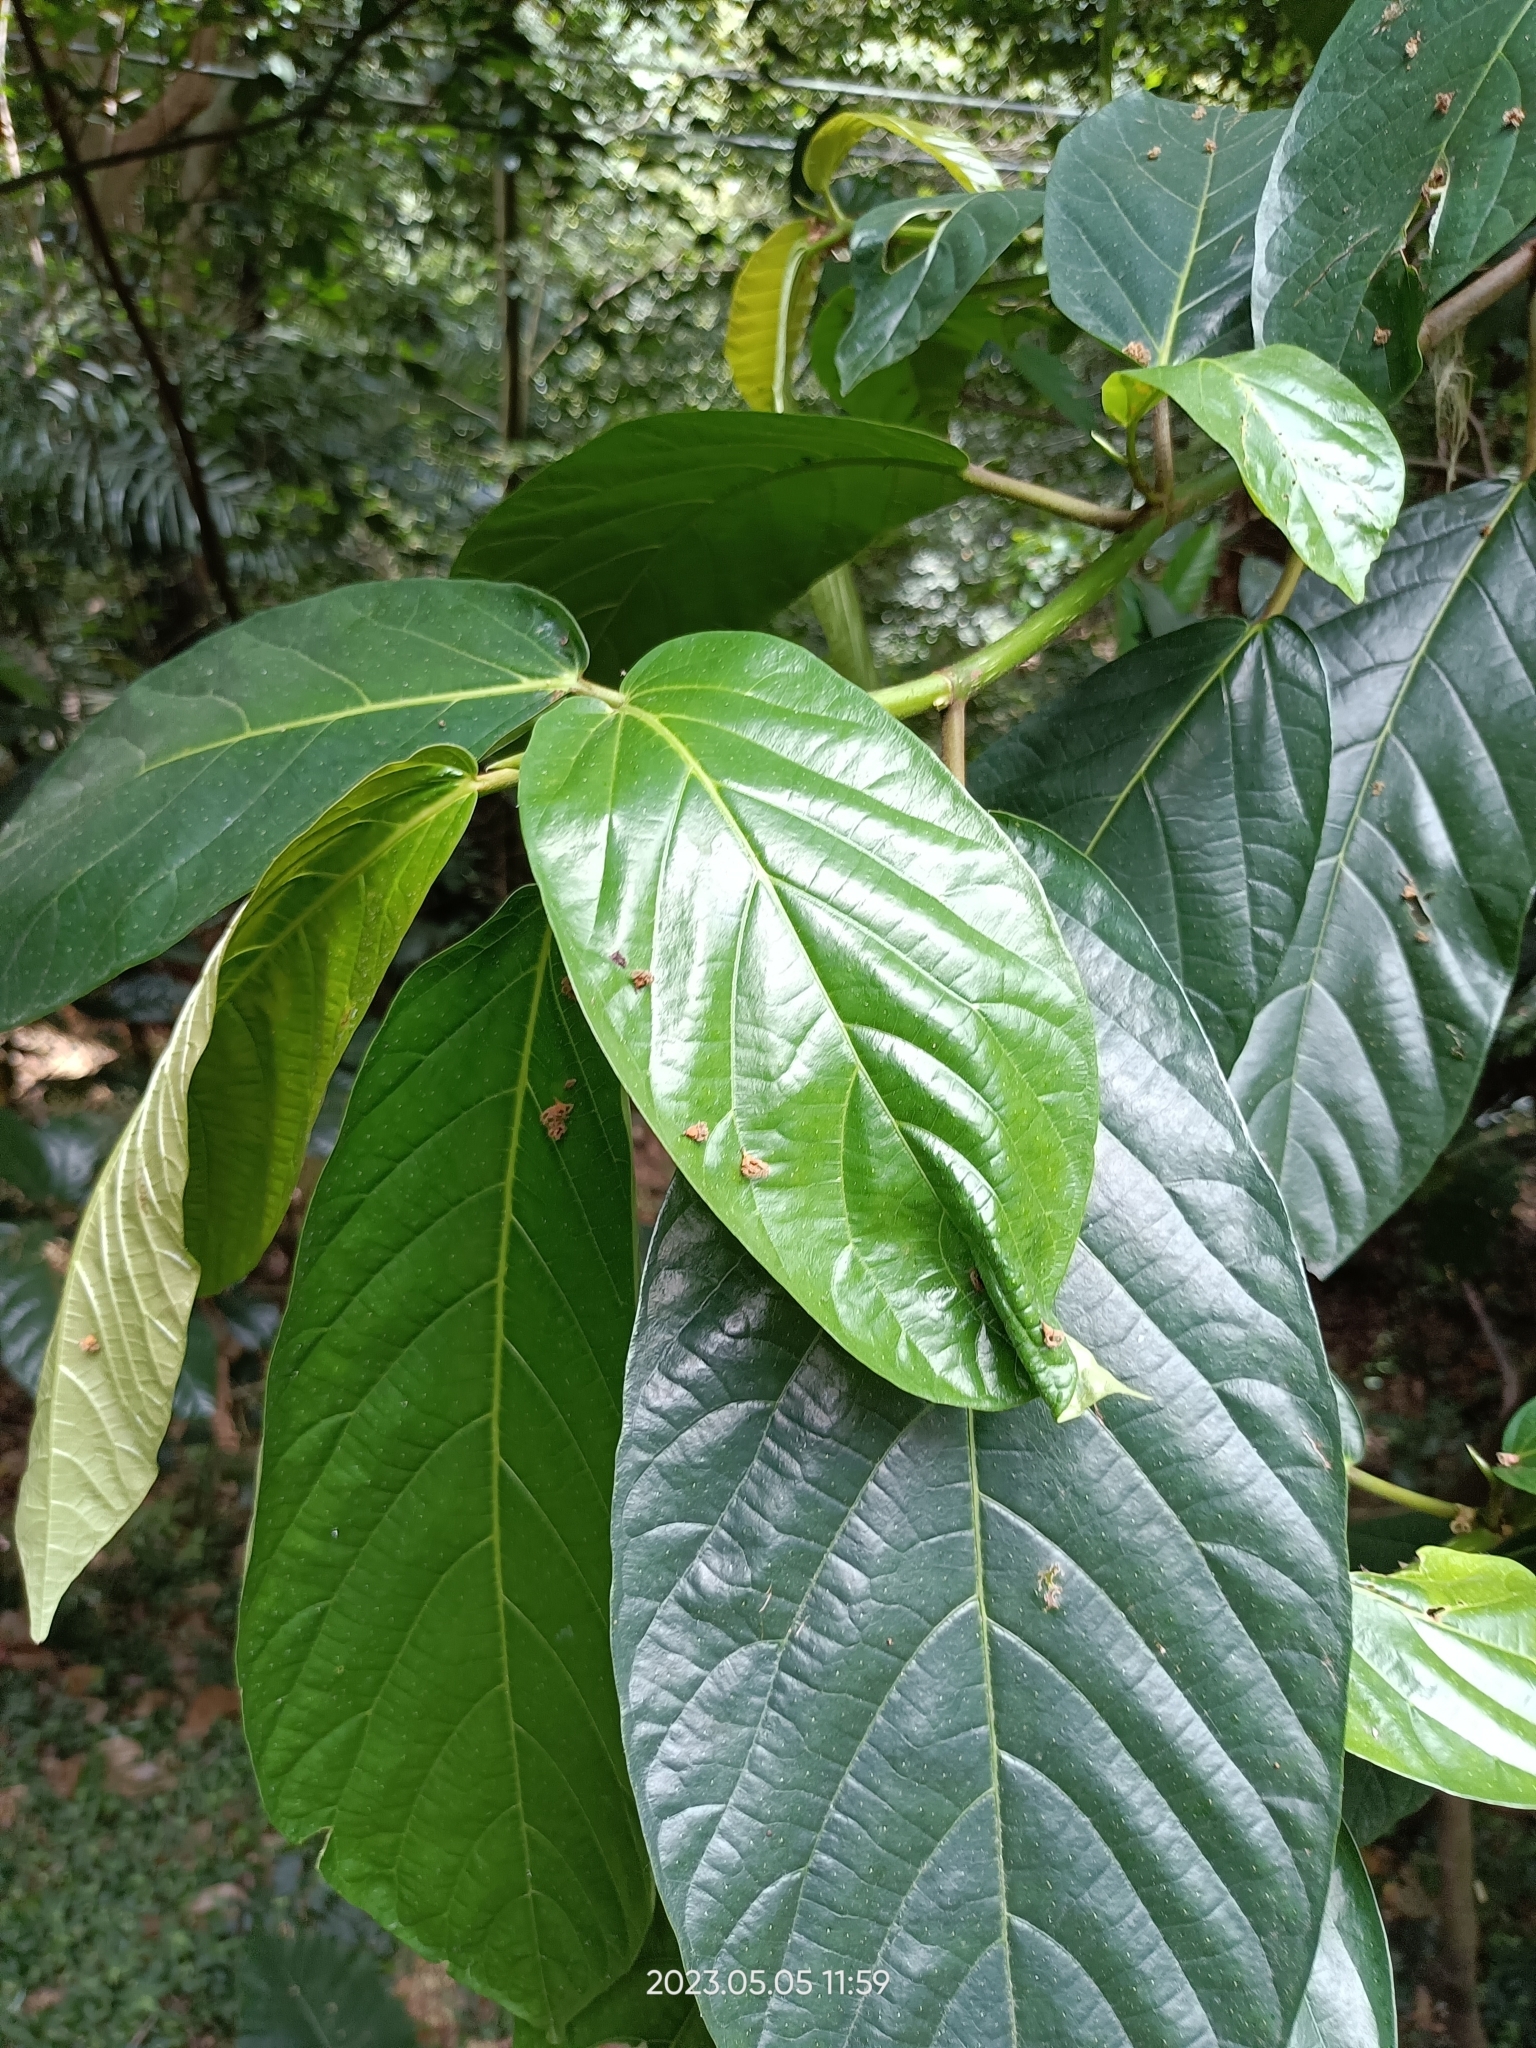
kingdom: Plantae
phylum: Tracheophyta
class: Magnoliopsida
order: Malvales
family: Malvaceae
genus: Sterculia
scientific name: Sterculia monosperma
